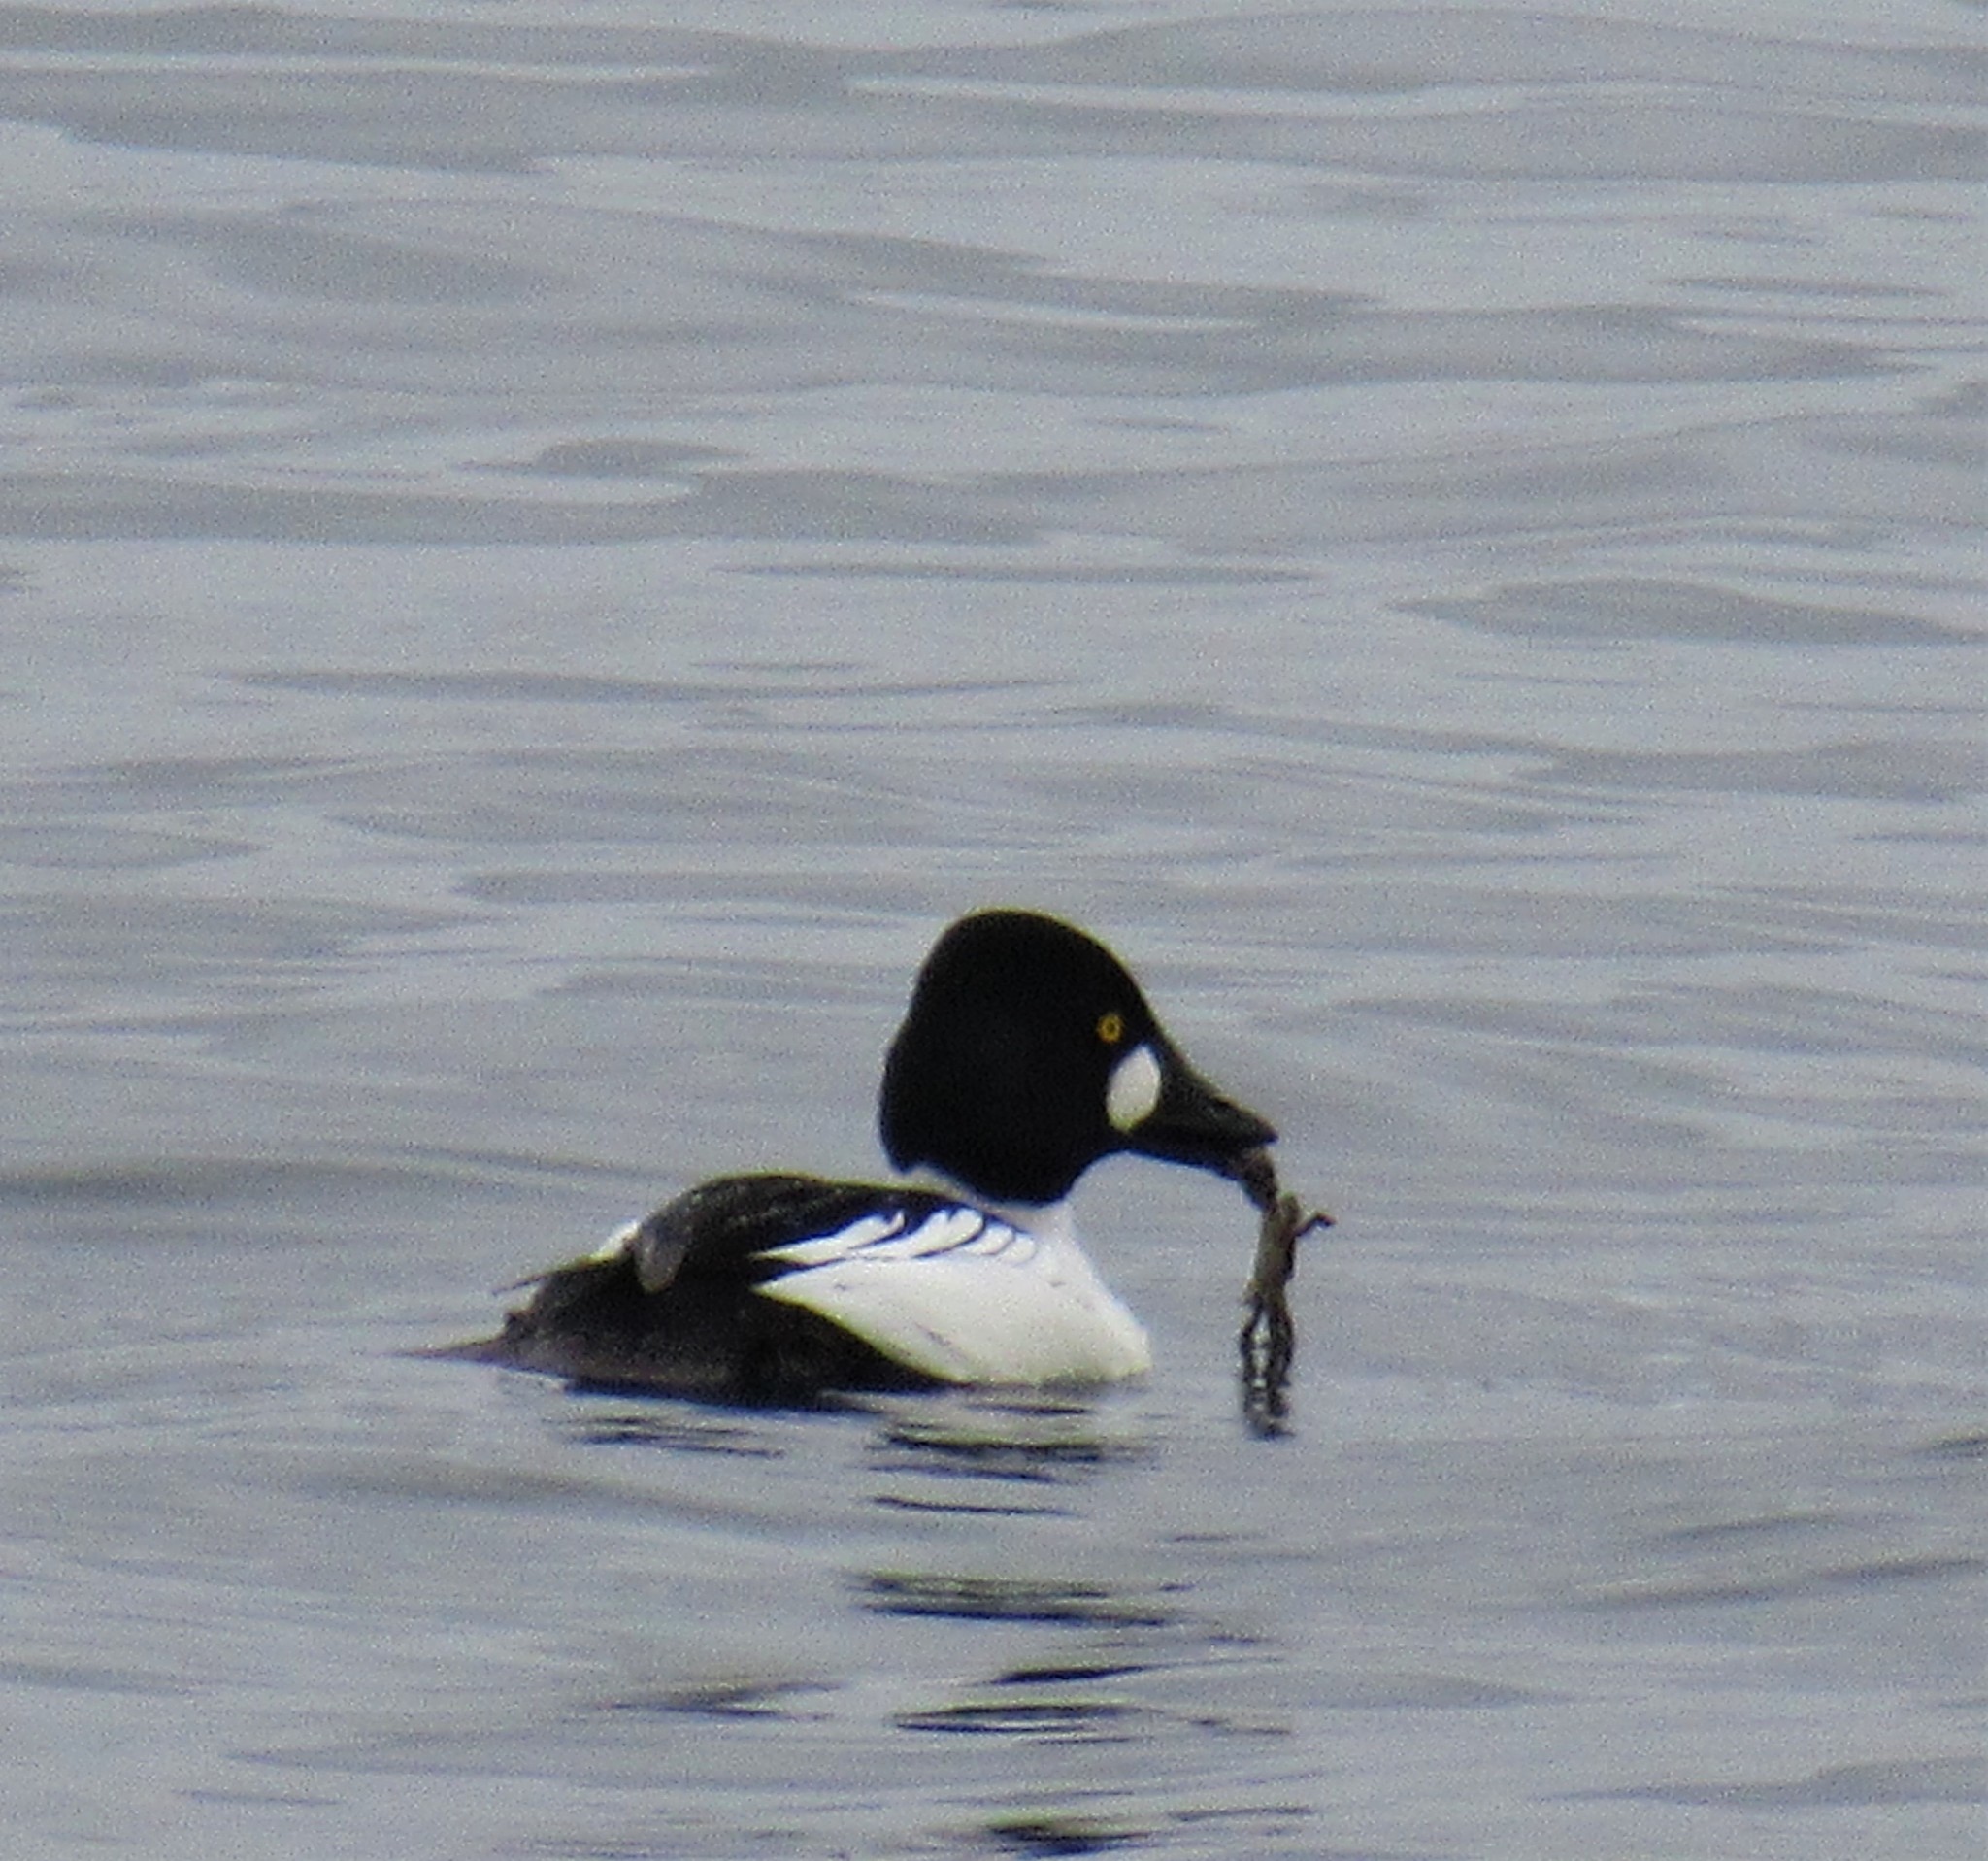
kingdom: Animalia
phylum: Chordata
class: Aves
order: Anseriformes
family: Anatidae
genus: Bucephala
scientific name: Bucephala clangula
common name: Common goldeneye
